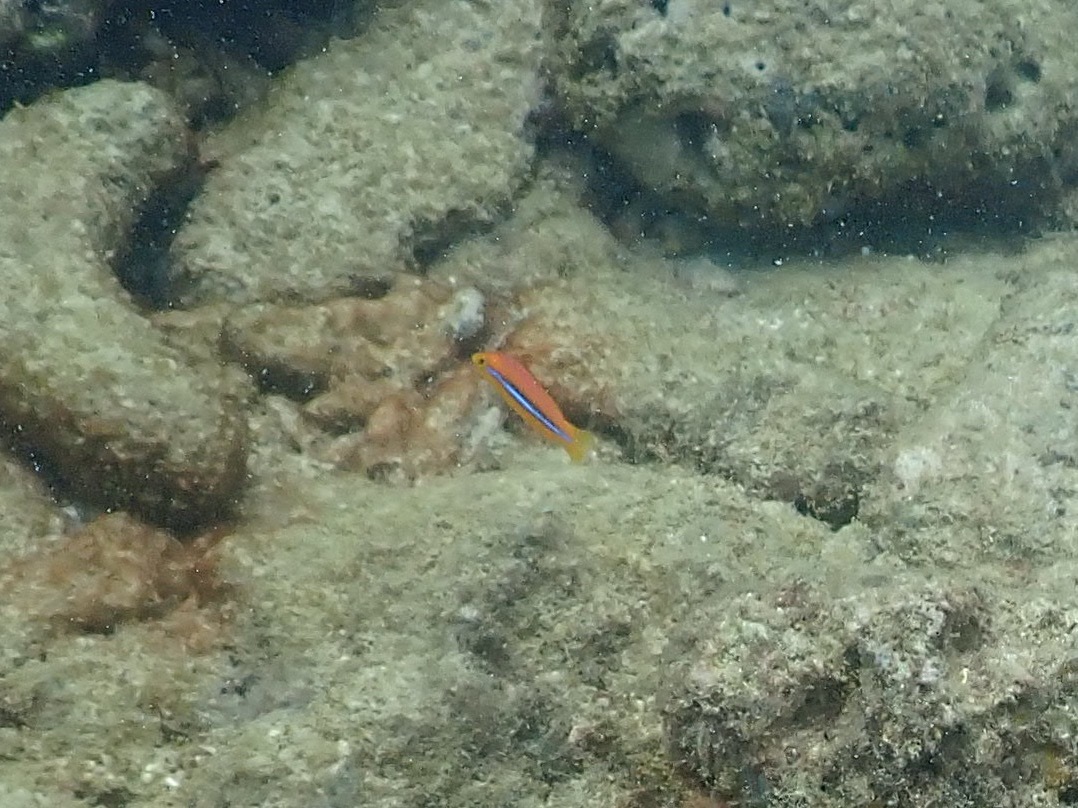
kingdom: Animalia
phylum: Chordata
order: Perciformes
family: Labridae
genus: Halichoeres
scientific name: Halichoeres garnoti
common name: Yellowhead wrasse
